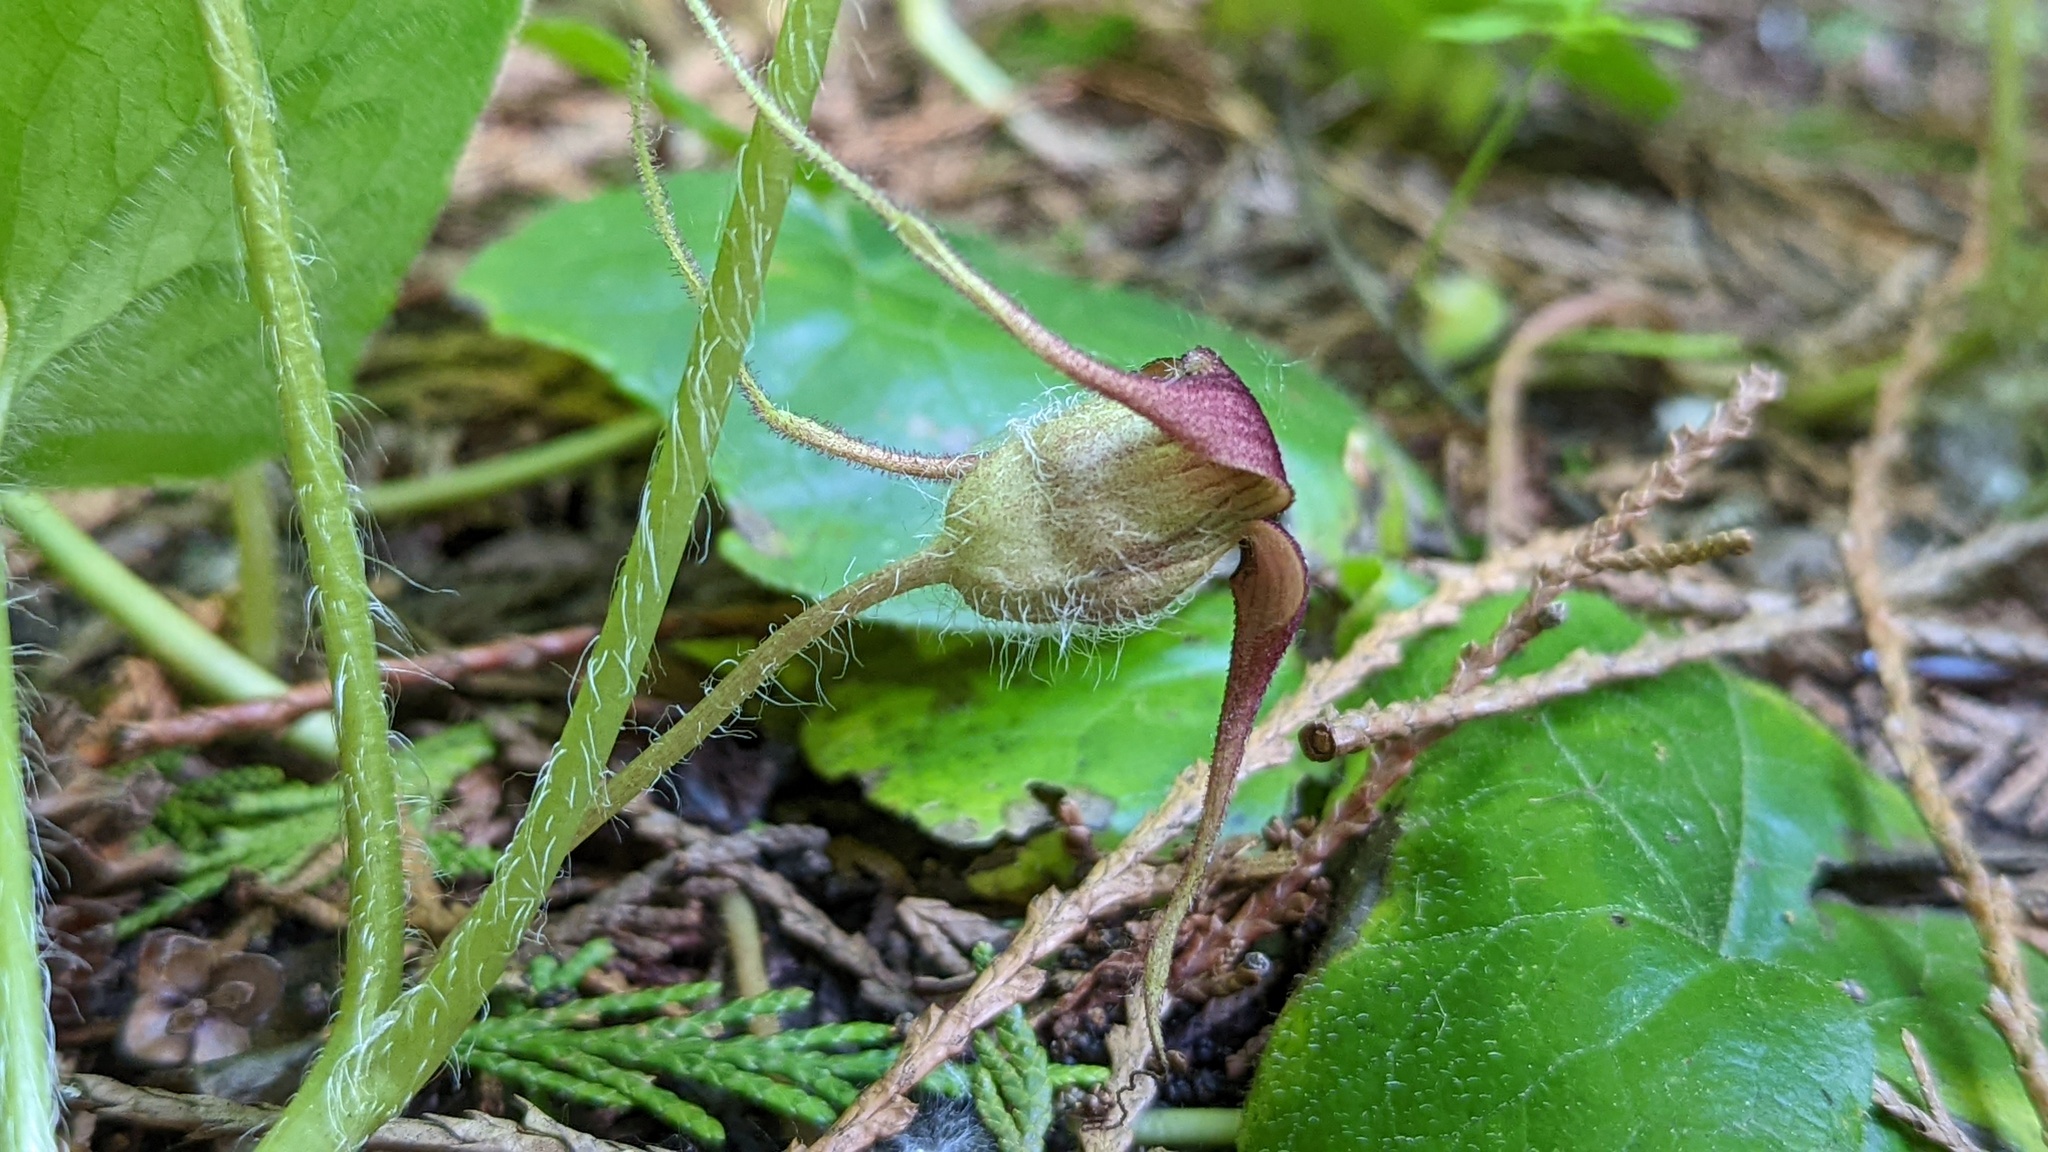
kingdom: Plantae
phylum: Tracheophyta
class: Magnoliopsida
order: Piperales
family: Aristolochiaceae
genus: Asarum
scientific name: Asarum caudatum
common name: Wild ginger
